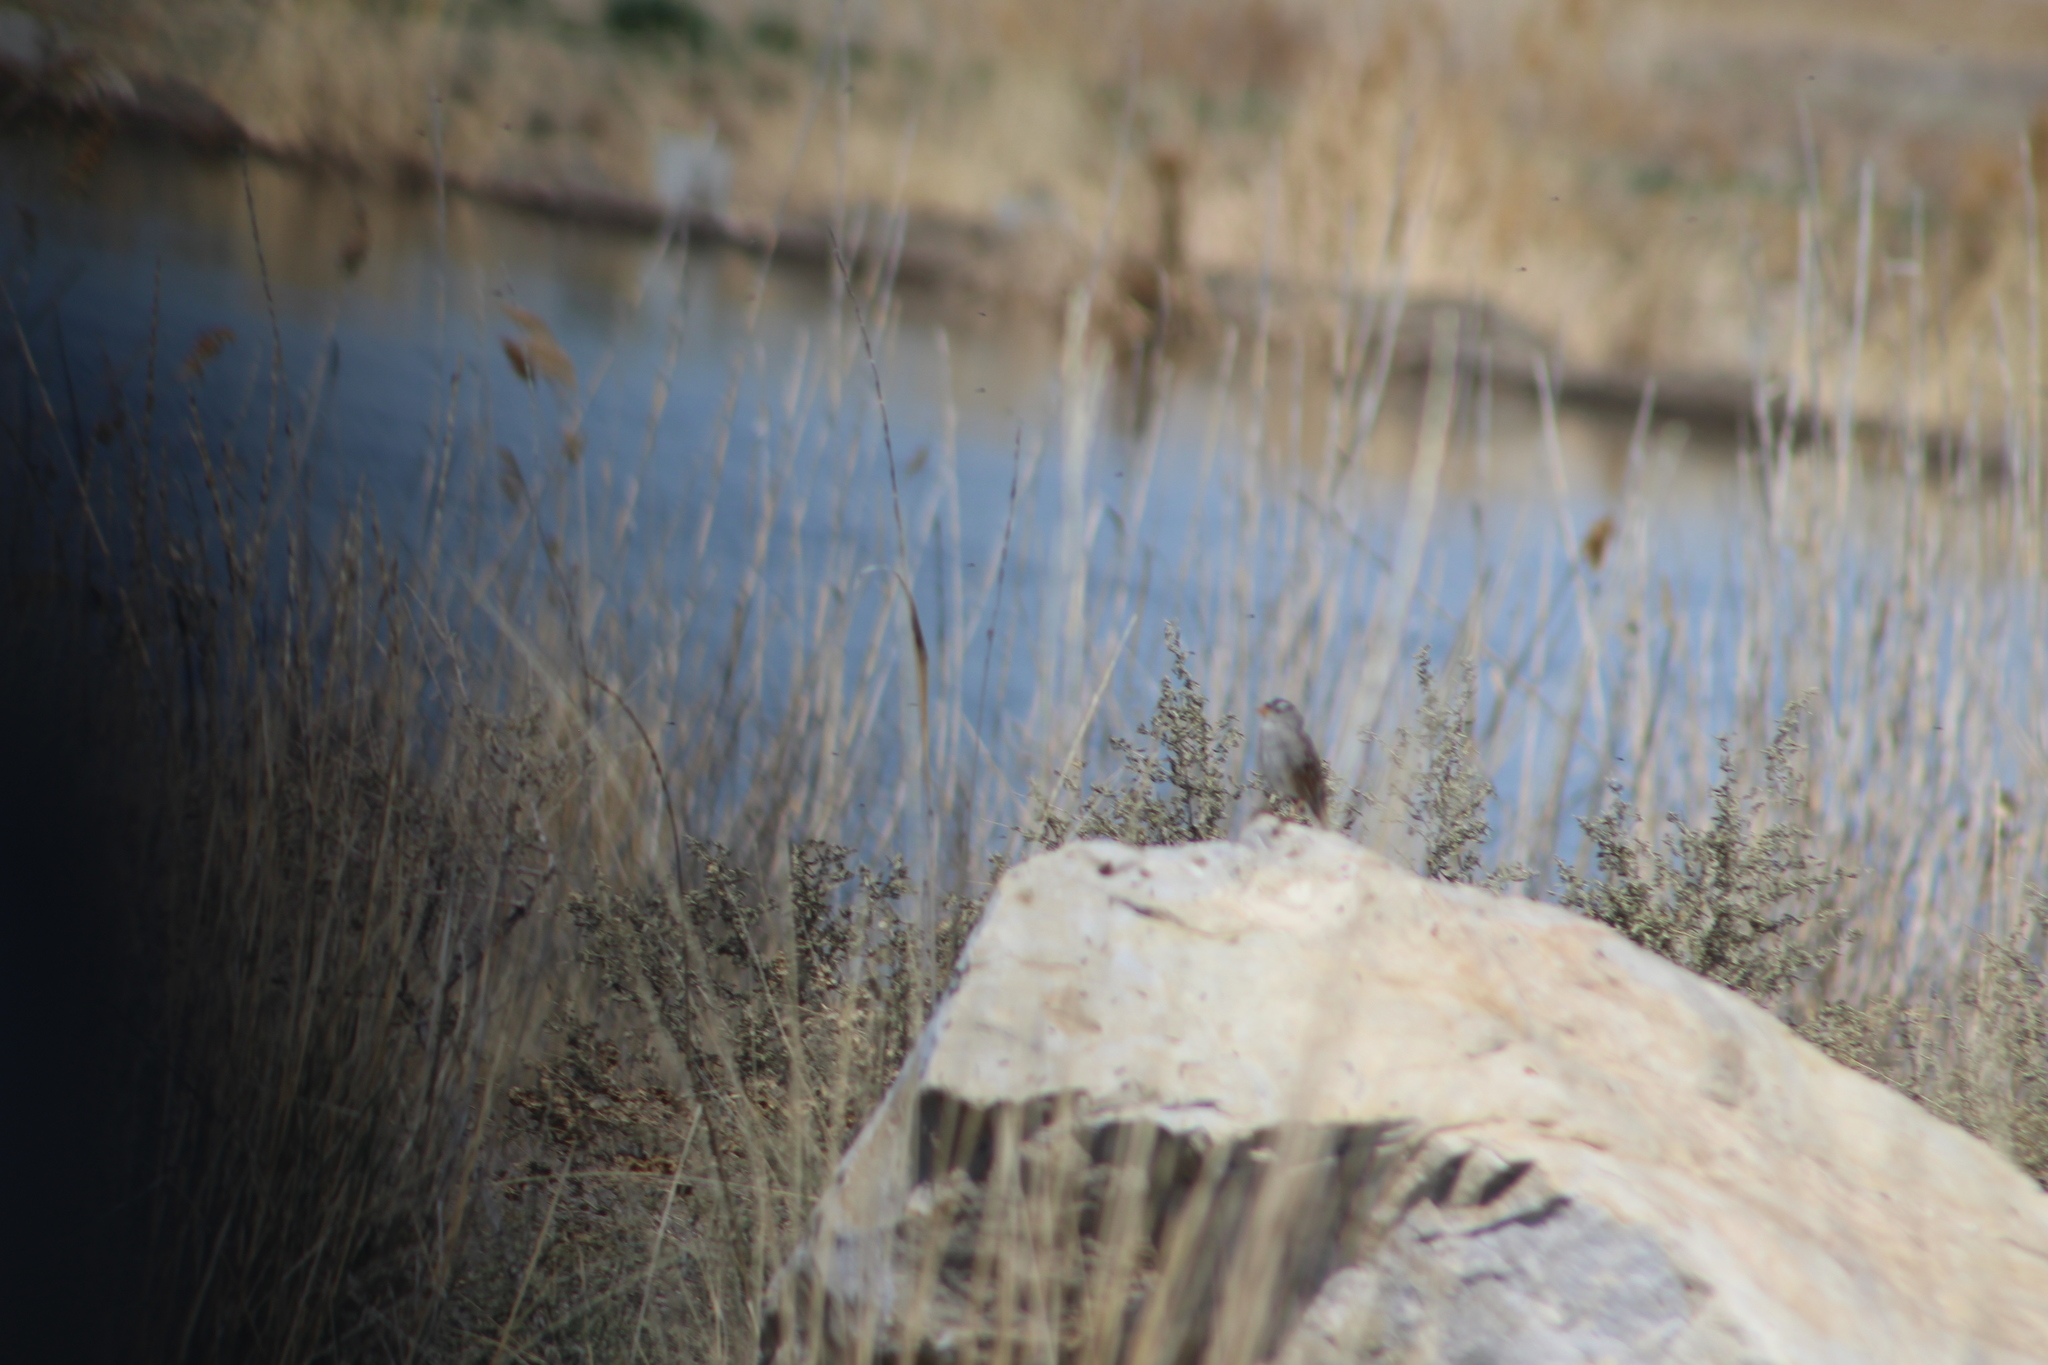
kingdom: Animalia
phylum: Chordata
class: Aves
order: Passeriformes
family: Passerellidae
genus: Zonotrichia
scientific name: Zonotrichia leucophrys
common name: White-crowned sparrow
